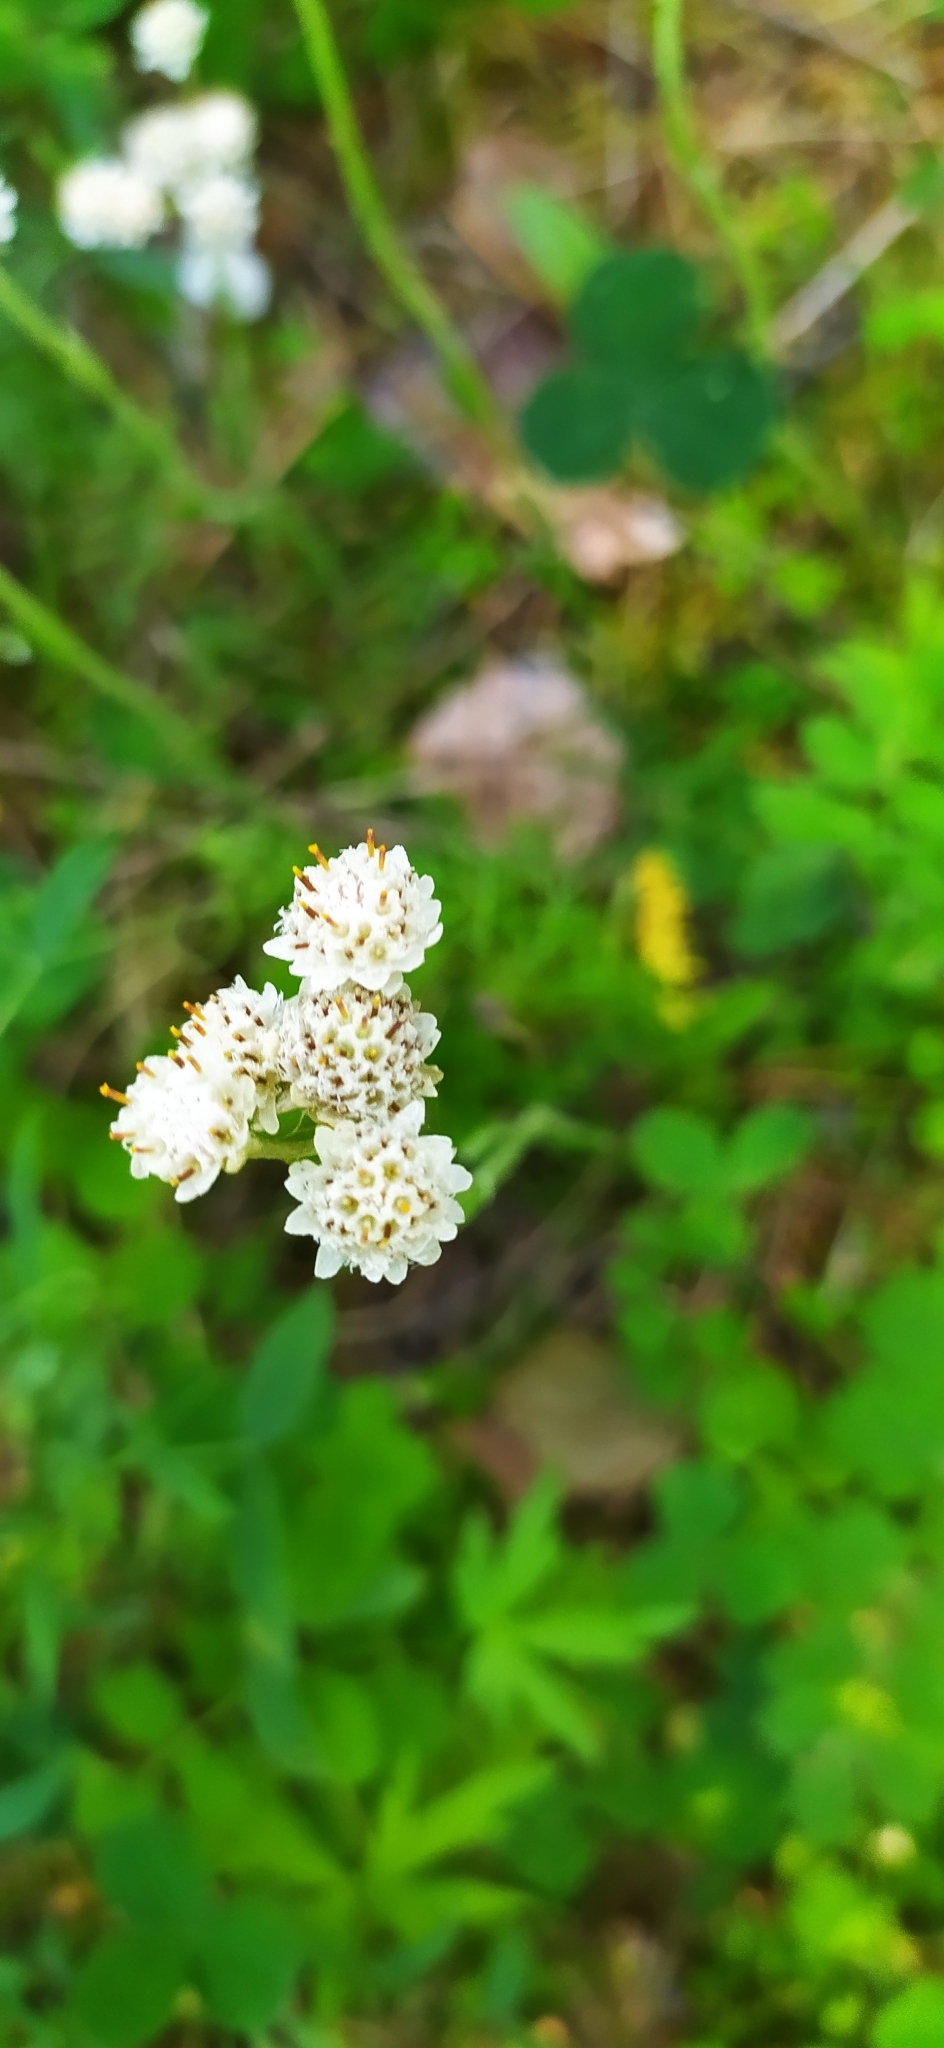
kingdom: Plantae
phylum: Tracheophyta
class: Magnoliopsida
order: Asterales
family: Asteraceae
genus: Antennaria
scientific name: Antennaria dioica
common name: Mountain everlasting
